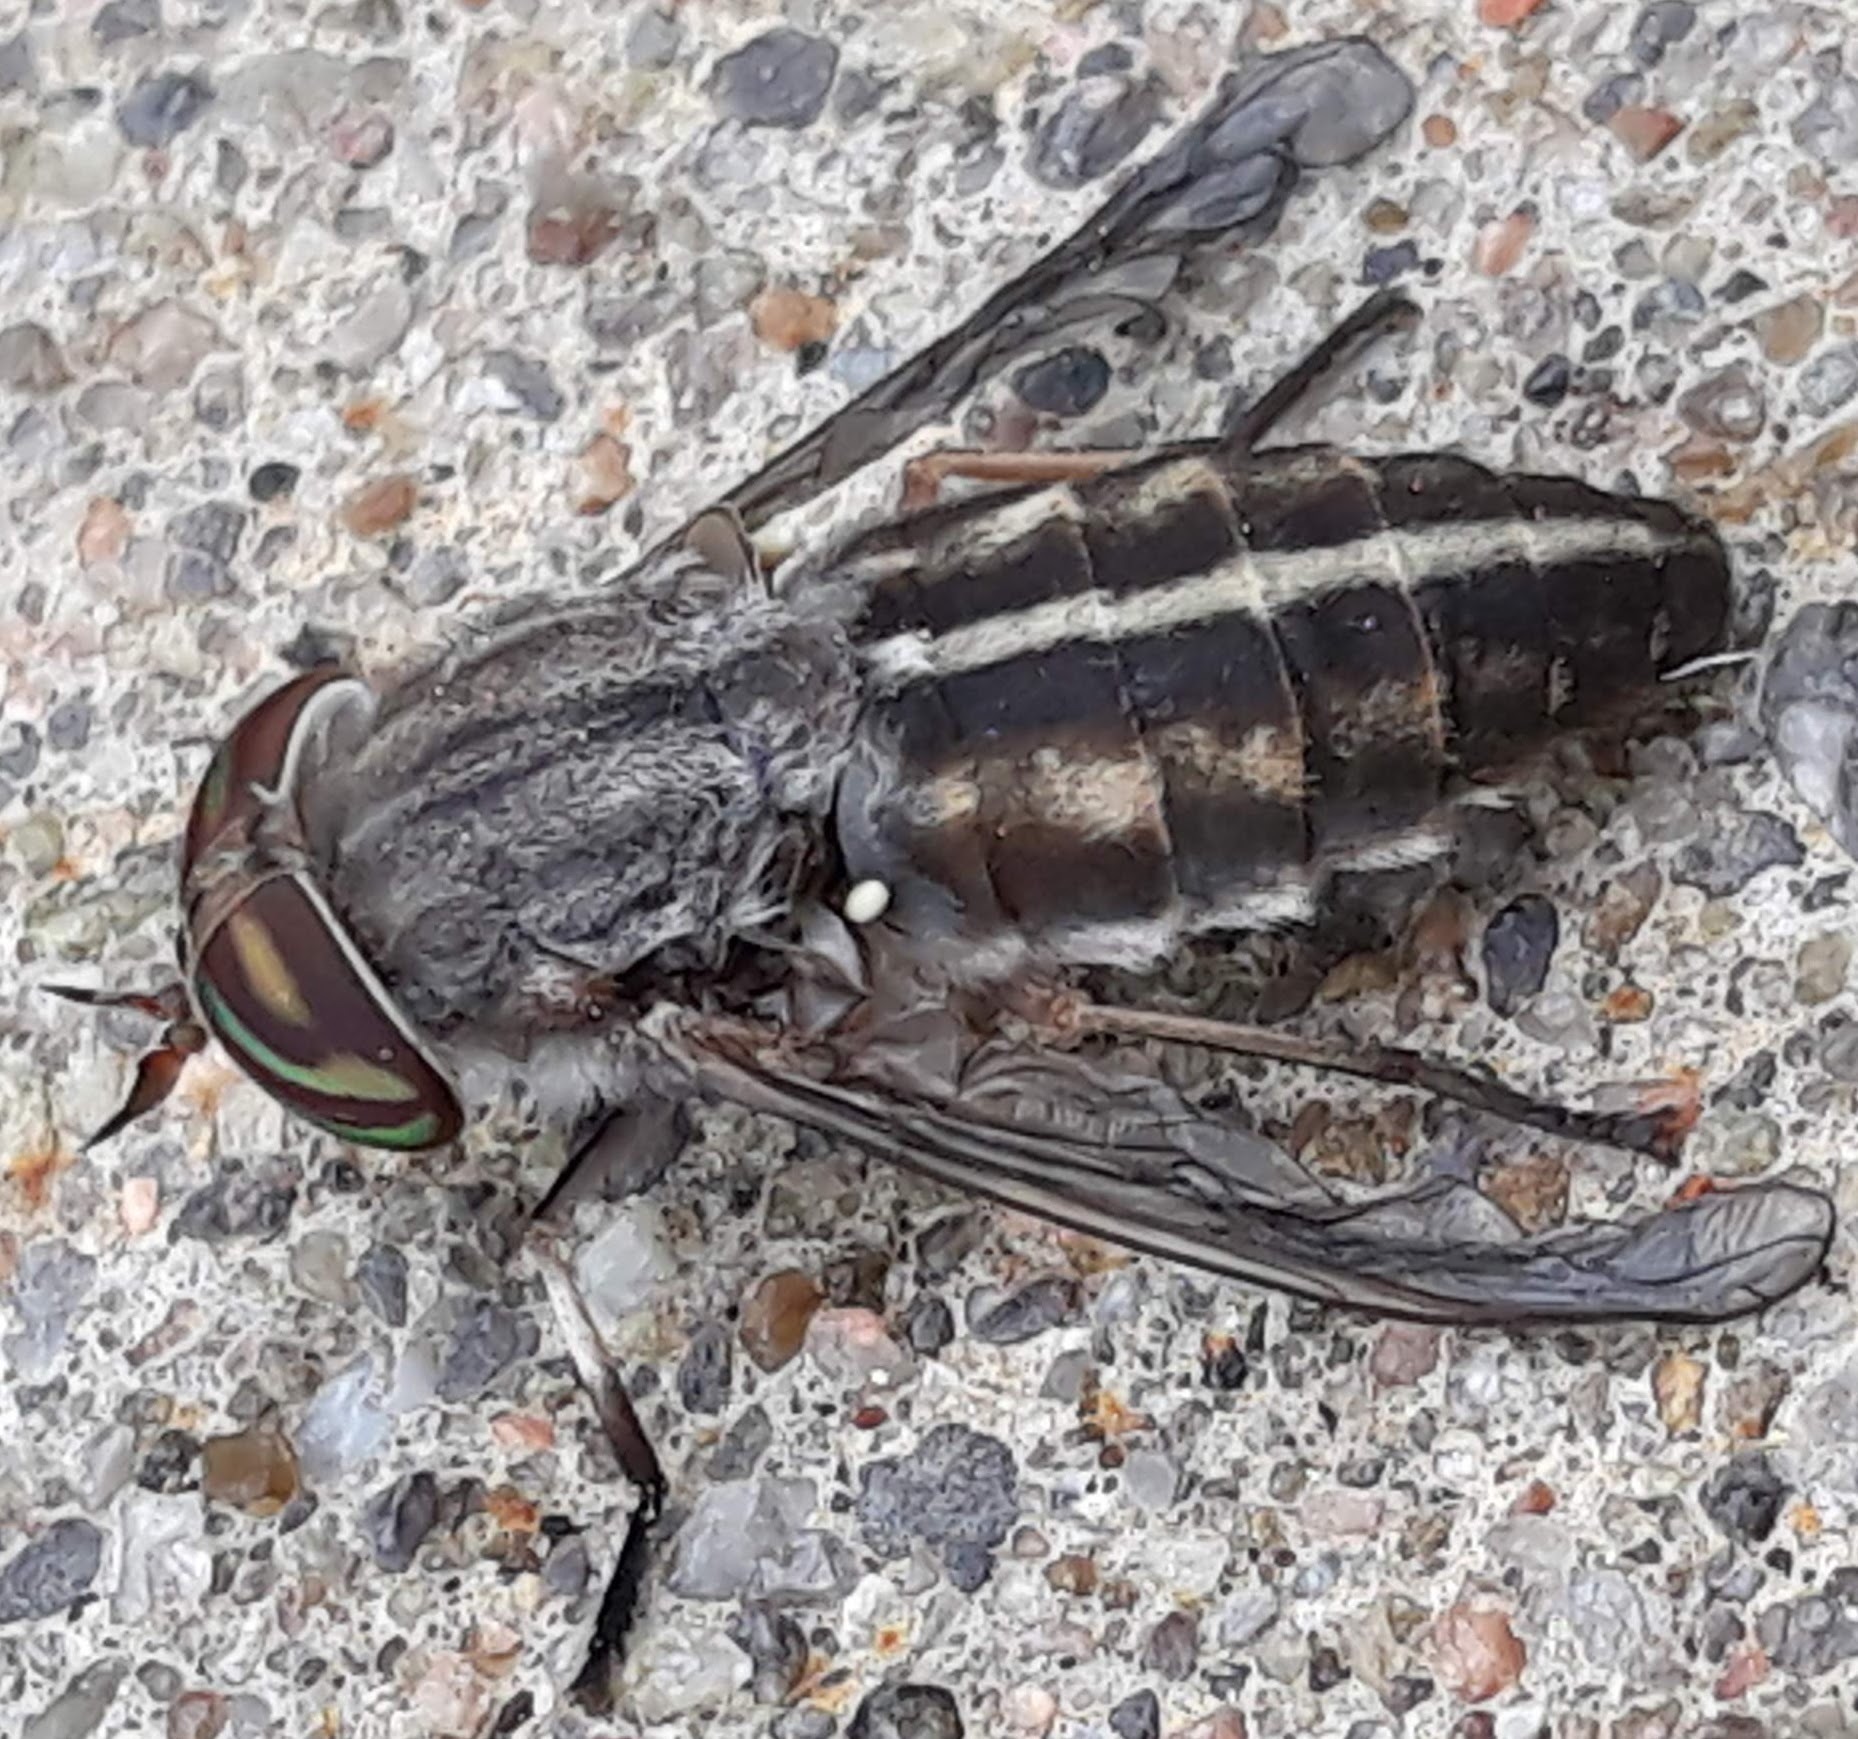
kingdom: Animalia
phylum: Arthropoda
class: Insecta
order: Diptera
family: Tabanidae
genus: Tabanus
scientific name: Tabanus similis
